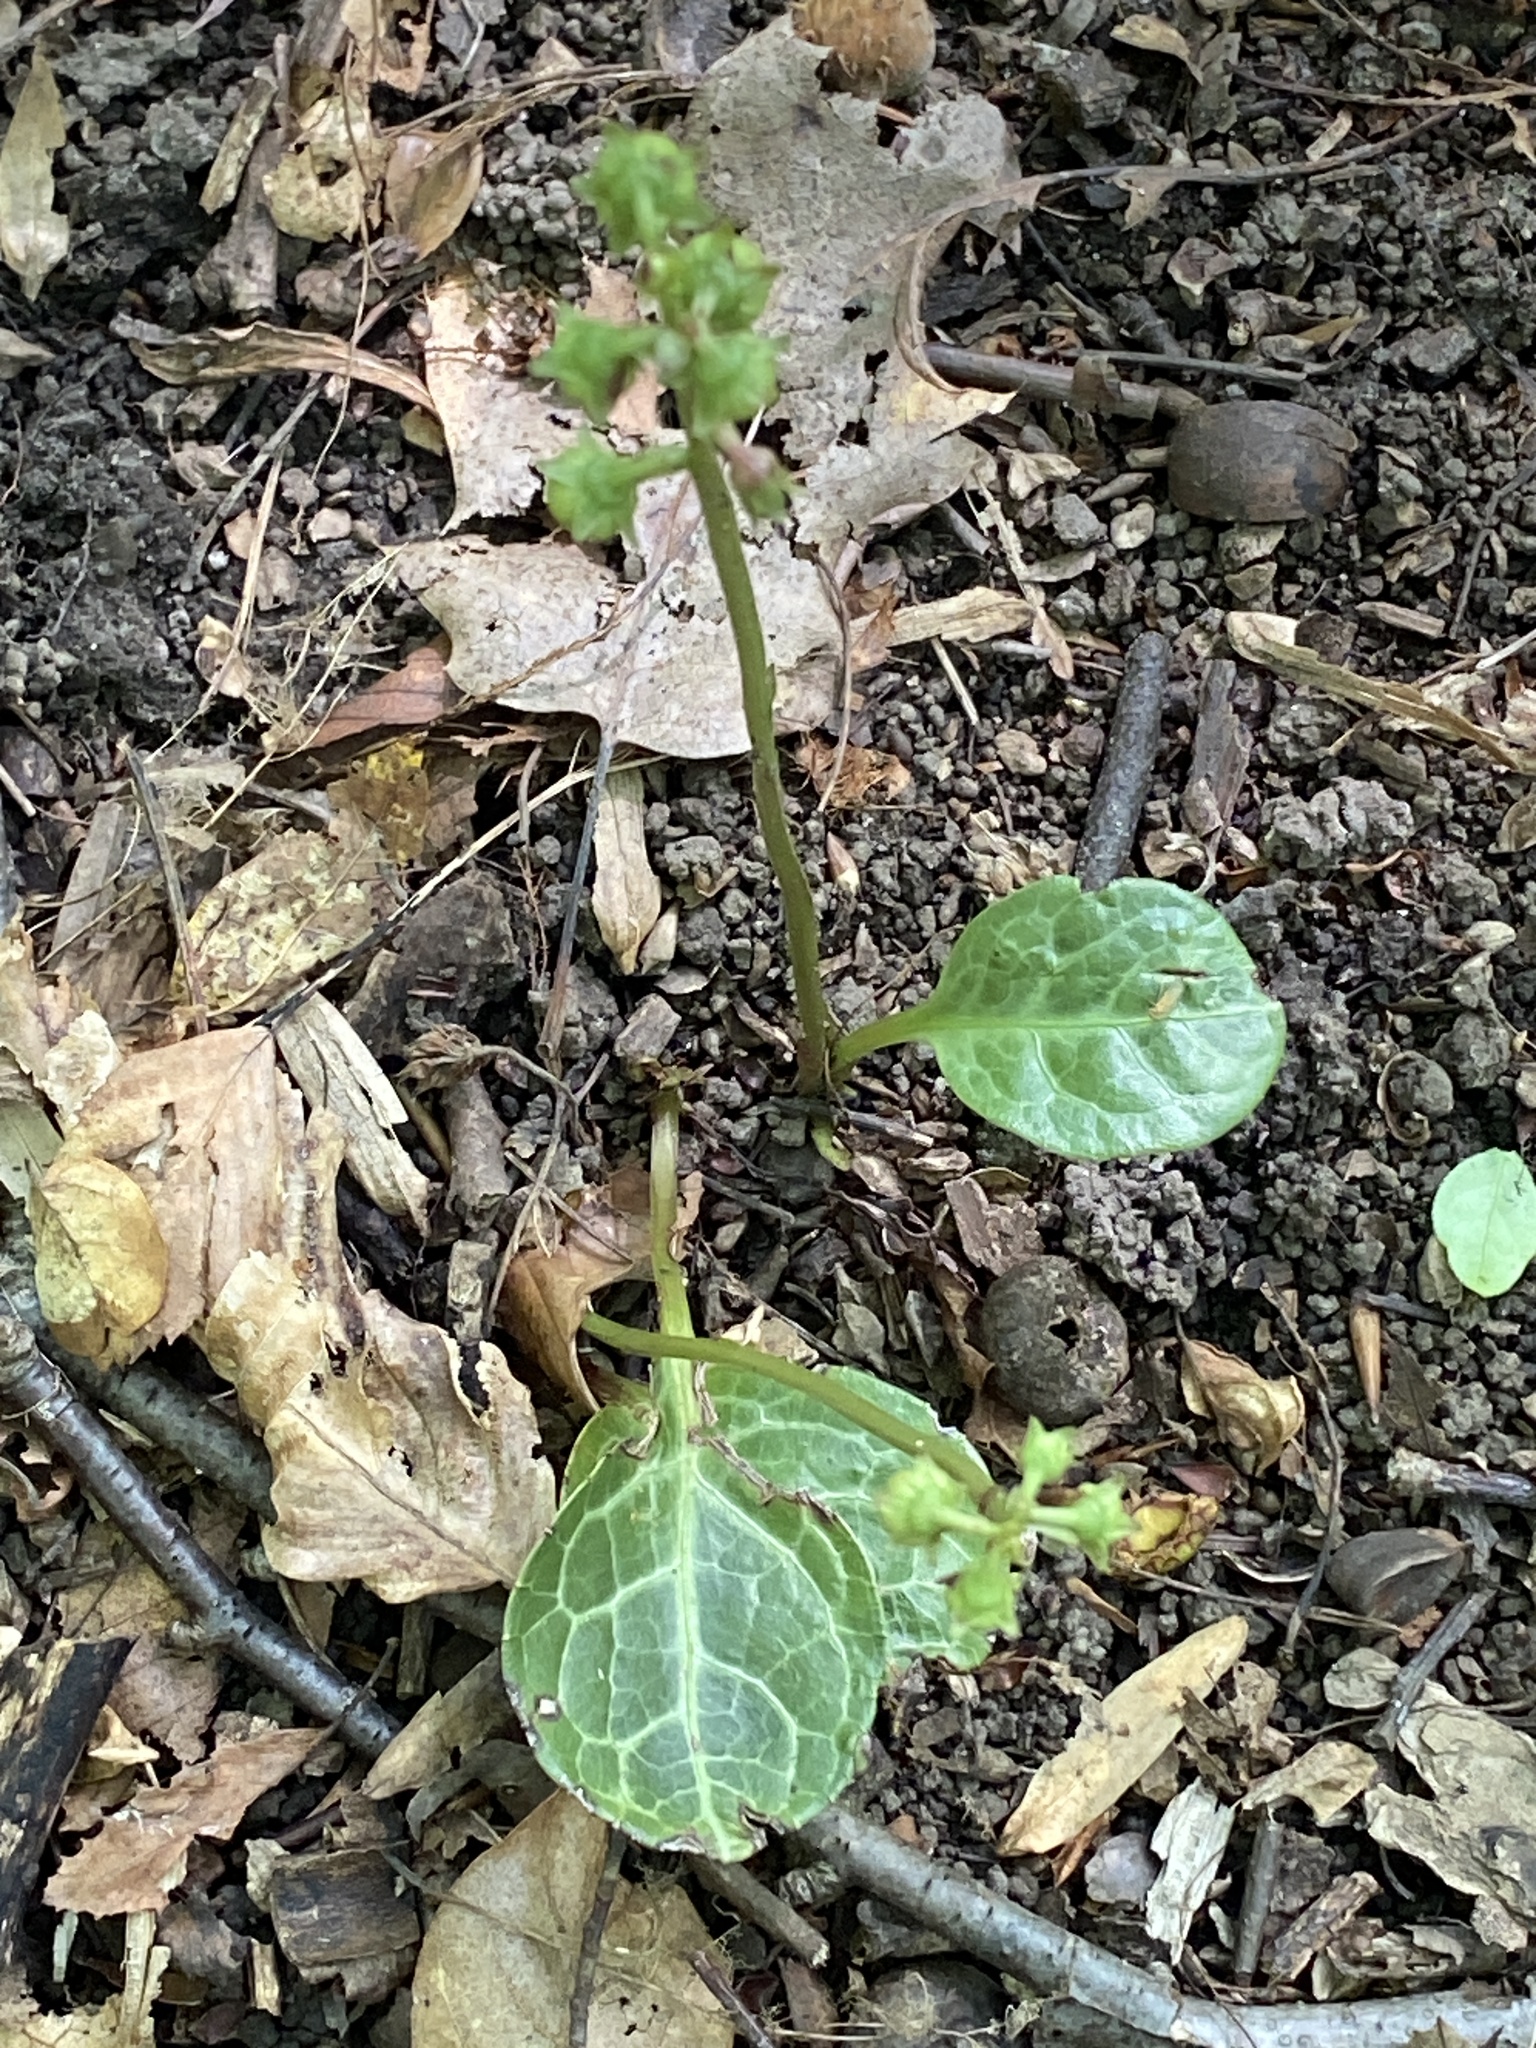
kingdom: Plantae
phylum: Tracheophyta
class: Magnoliopsida
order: Ericales
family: Ericaceae
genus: Pyrola
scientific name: Pyrola americana
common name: American wintergreen
